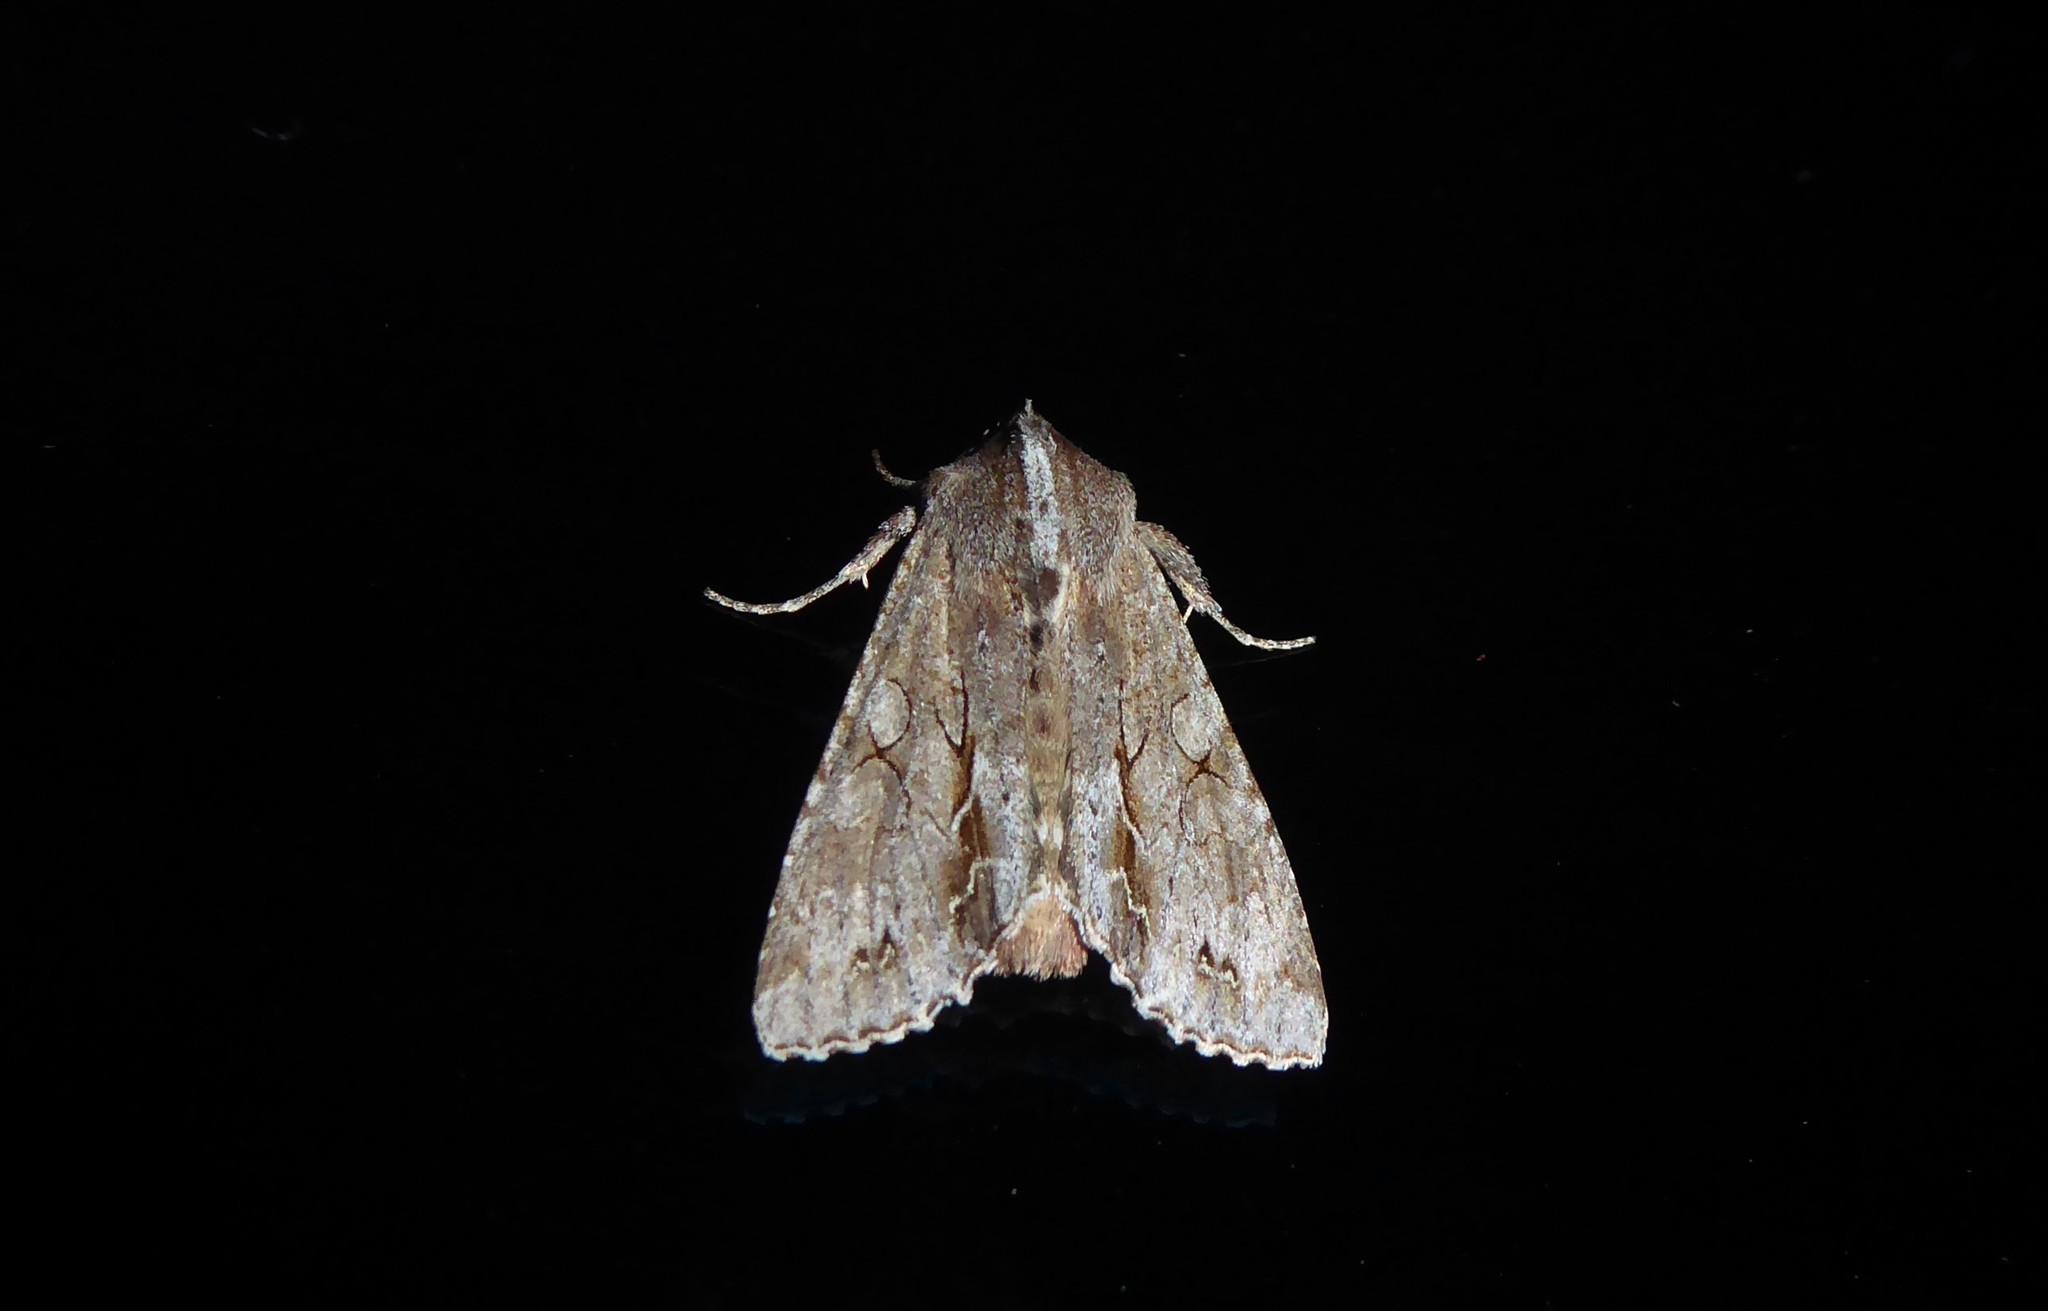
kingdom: Animalia
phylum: Arthropoda
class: Insecta
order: Lepidoptera
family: Noctuidae
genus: Ichneutica
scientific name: Ichneutica
